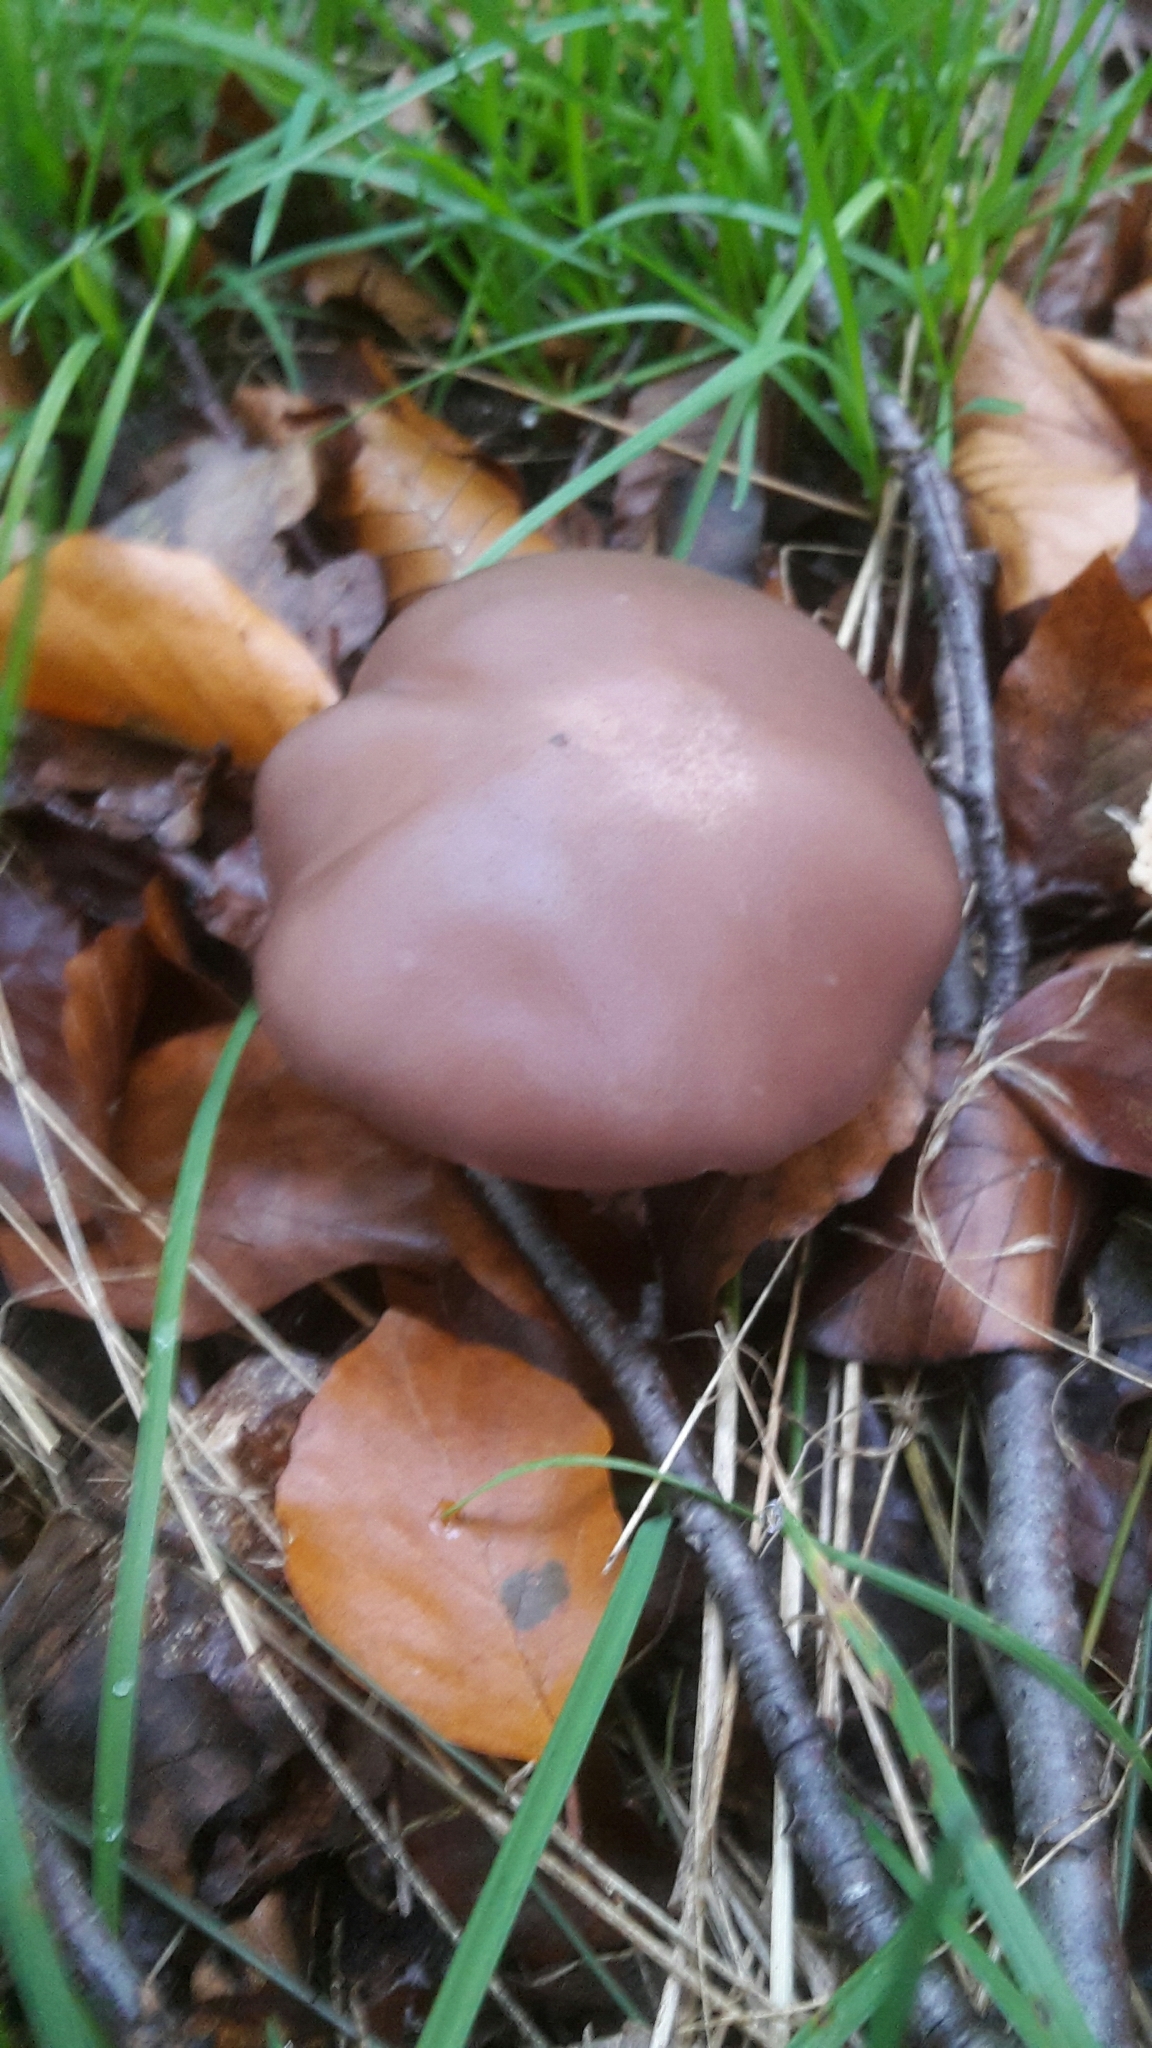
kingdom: Fungi
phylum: Basidiomycota
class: Agaricomycetes
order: Agaricales
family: Tricholomataceae
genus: Collybia
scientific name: Collybia
